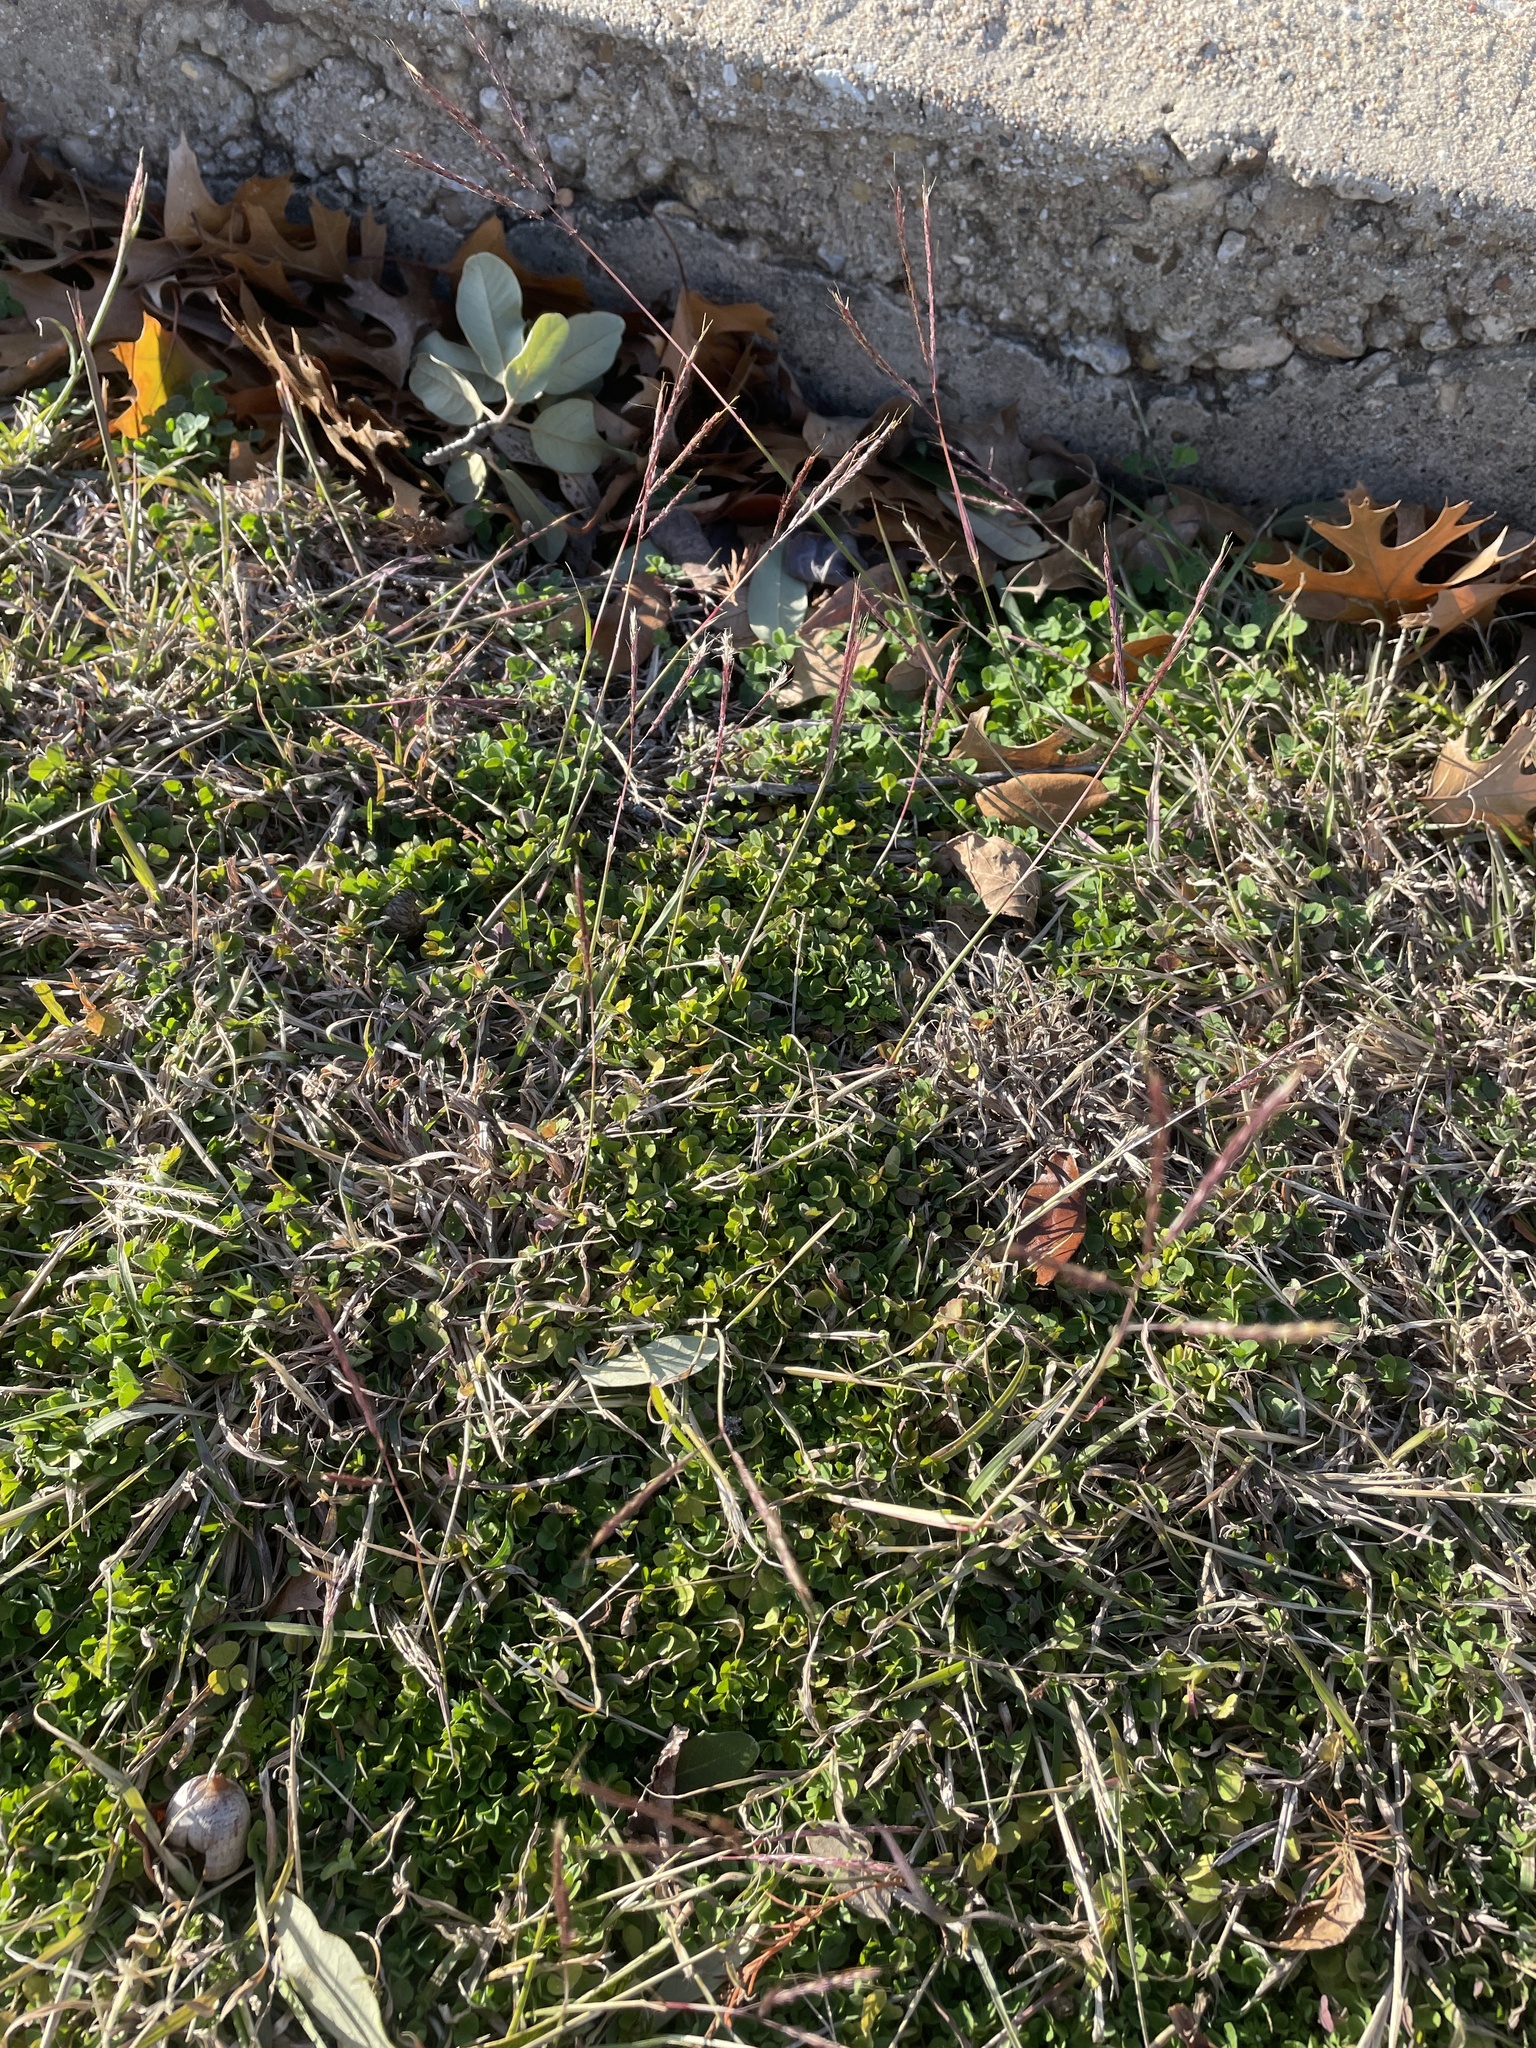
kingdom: Plantae
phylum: Tracheophyta
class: Liliopsida
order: Poales
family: Poaceae
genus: Bothriochloa
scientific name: Bothriochloa ischaemum
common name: Yellow bluestem
